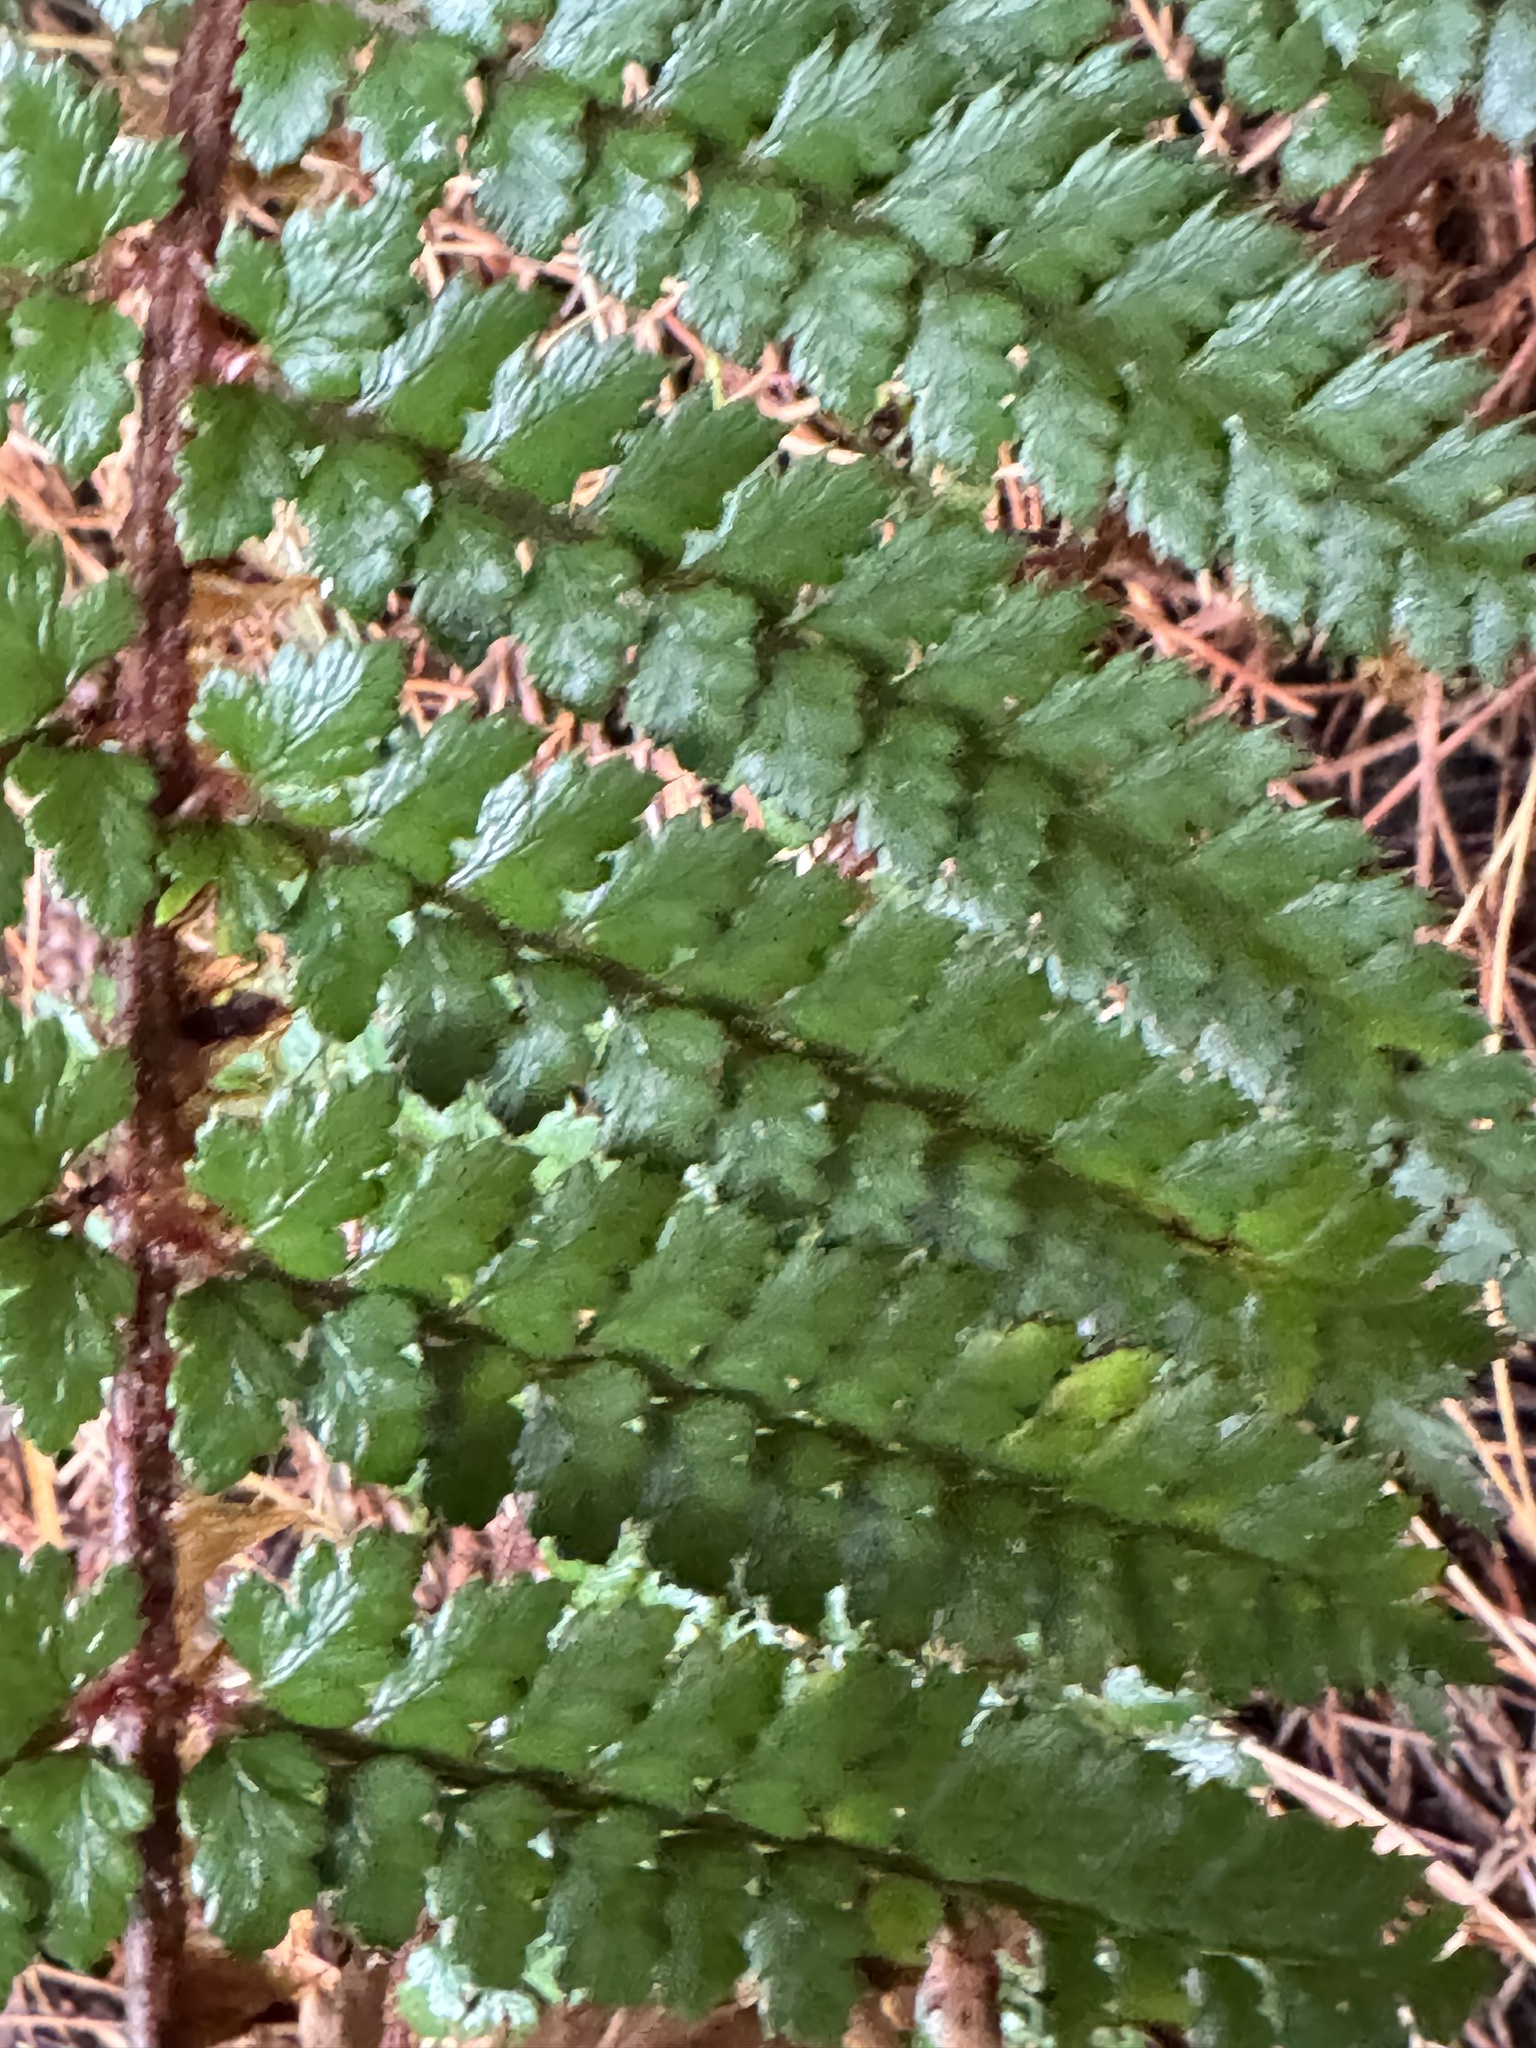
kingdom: Plantae
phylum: Tracheophyta
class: Polypodiopsida
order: Polypodiales
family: Dryopteridaceae
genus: Polystichum
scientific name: Polystichum vestitum
